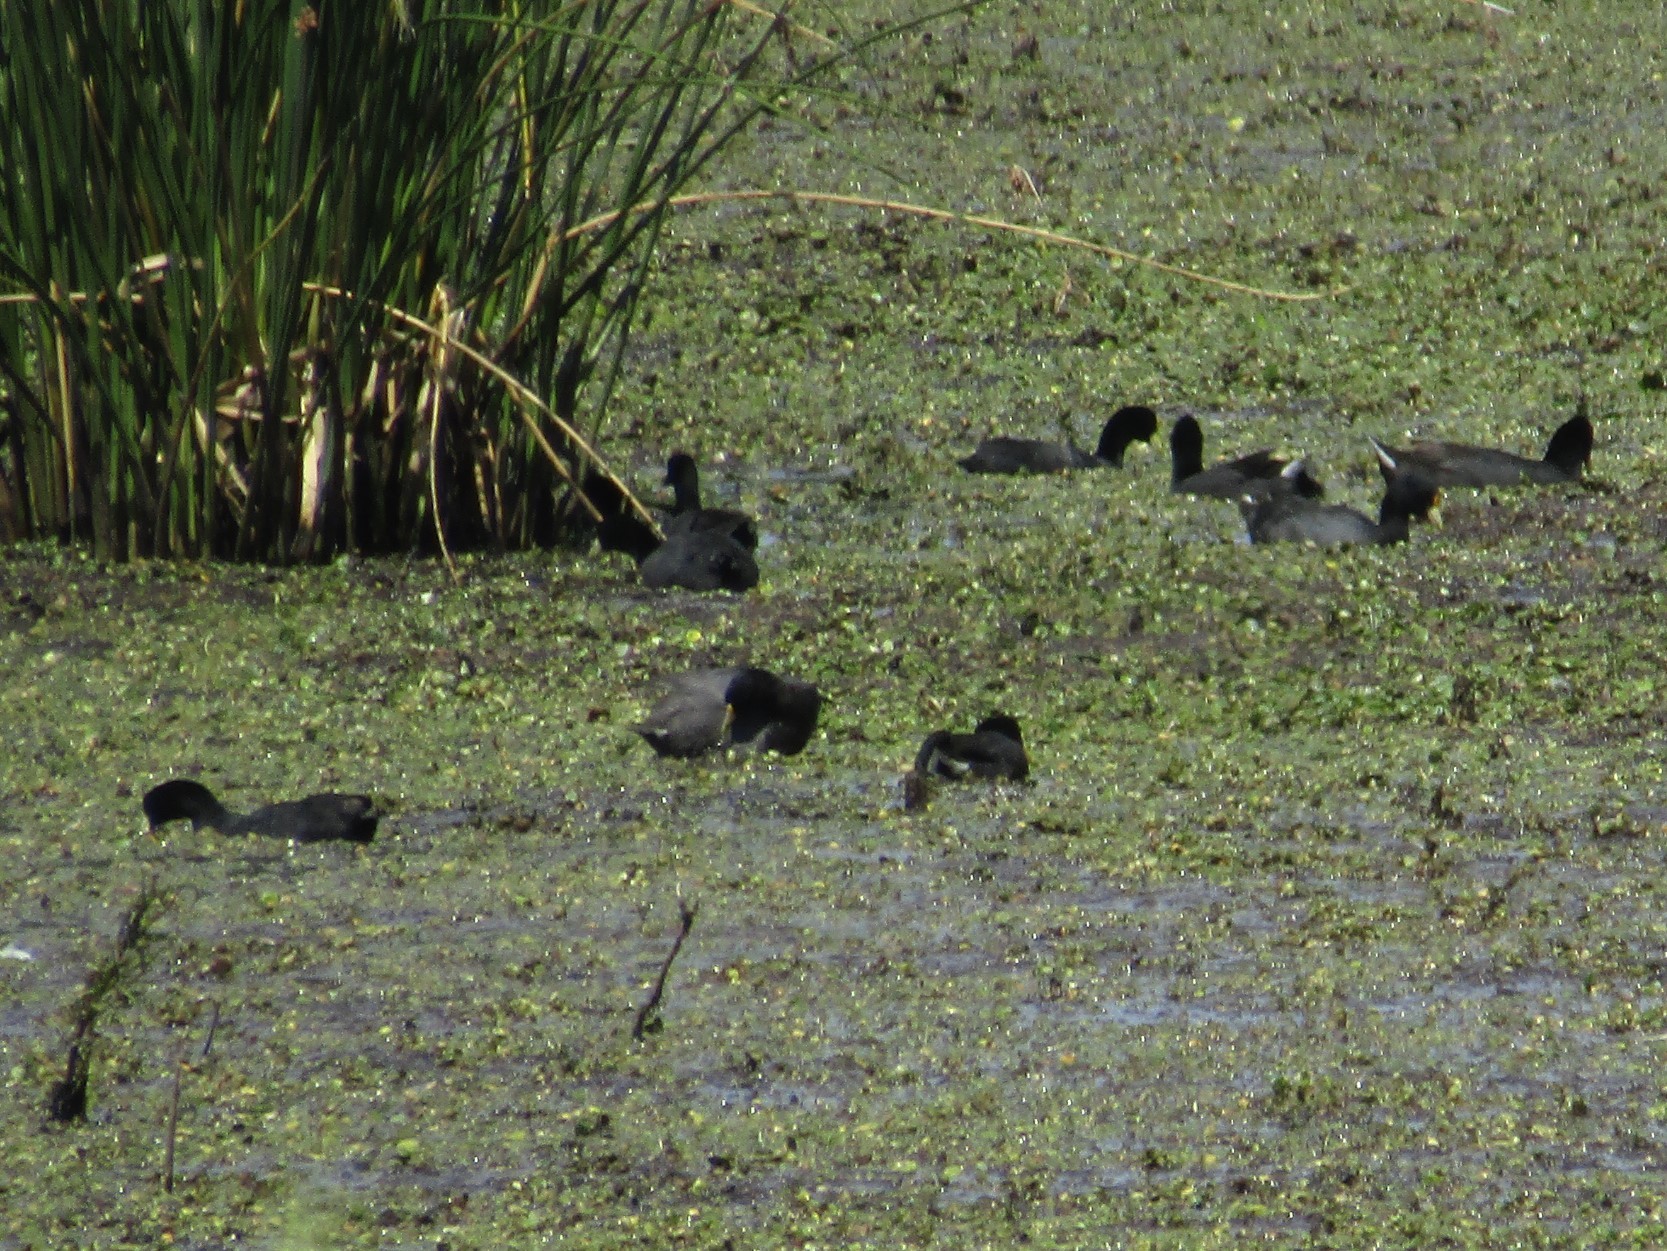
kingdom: Animalia
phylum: Chordata
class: Aves
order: Gruiformes
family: Rallidae
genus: Fulica
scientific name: Fulica rufifrons
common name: Red-fronted coot
